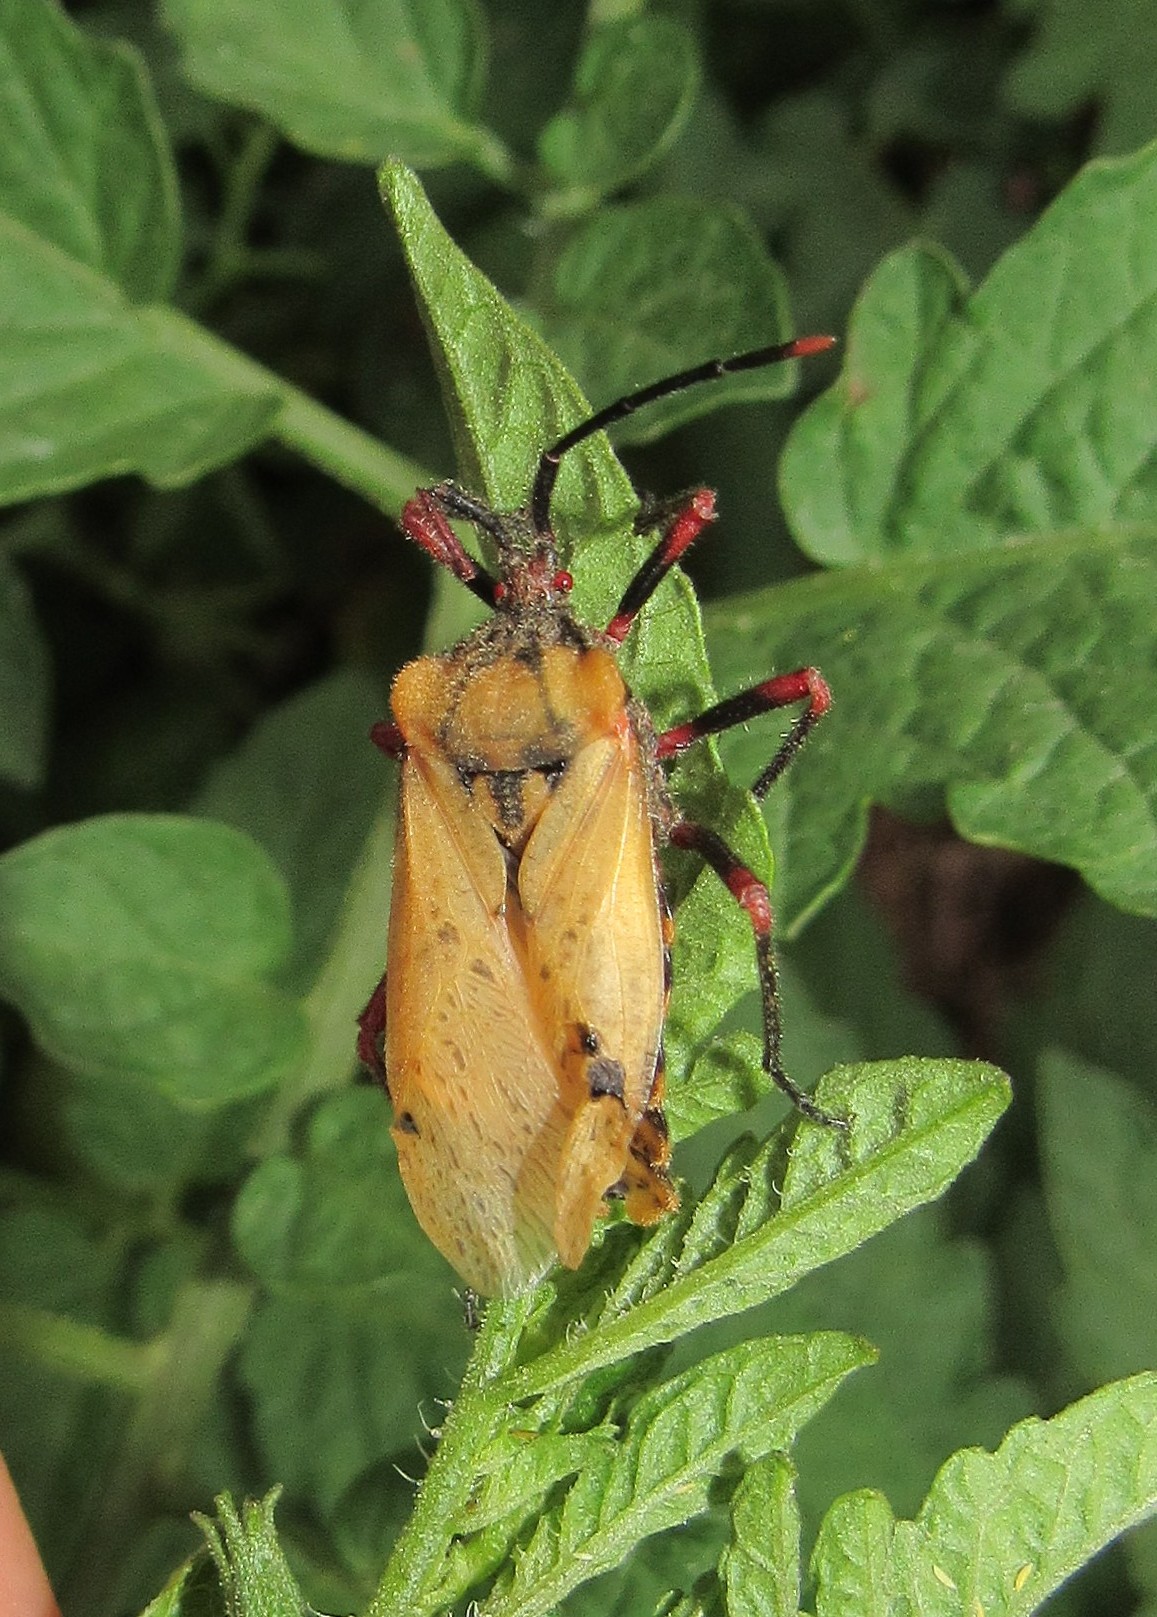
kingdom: Animalia
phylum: Arthropoda
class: Insecta
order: Hemiptera
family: Coreidae
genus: Spartocera
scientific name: Spartocera fusca
